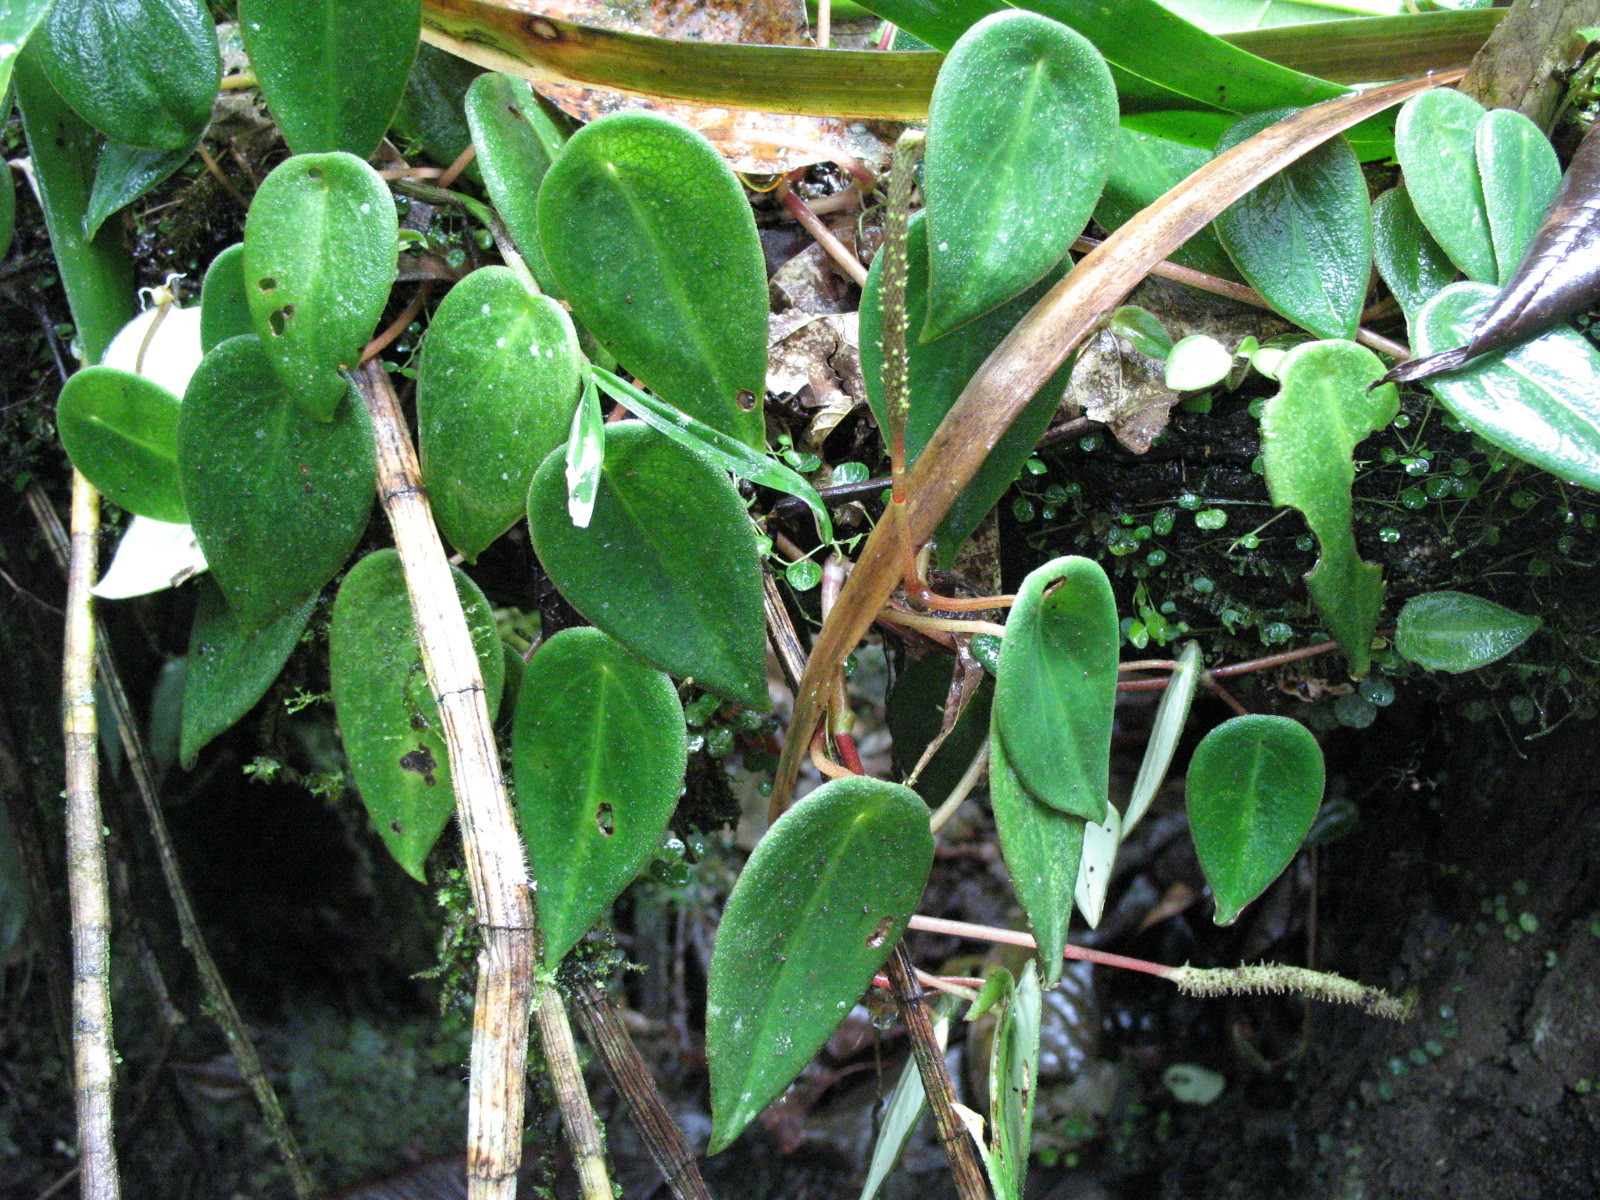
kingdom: Plantae
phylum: Tracheophyta
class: Magnoliopsida
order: Piperales
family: Piperaceae
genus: Peperomia
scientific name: Peperomia eburnea
